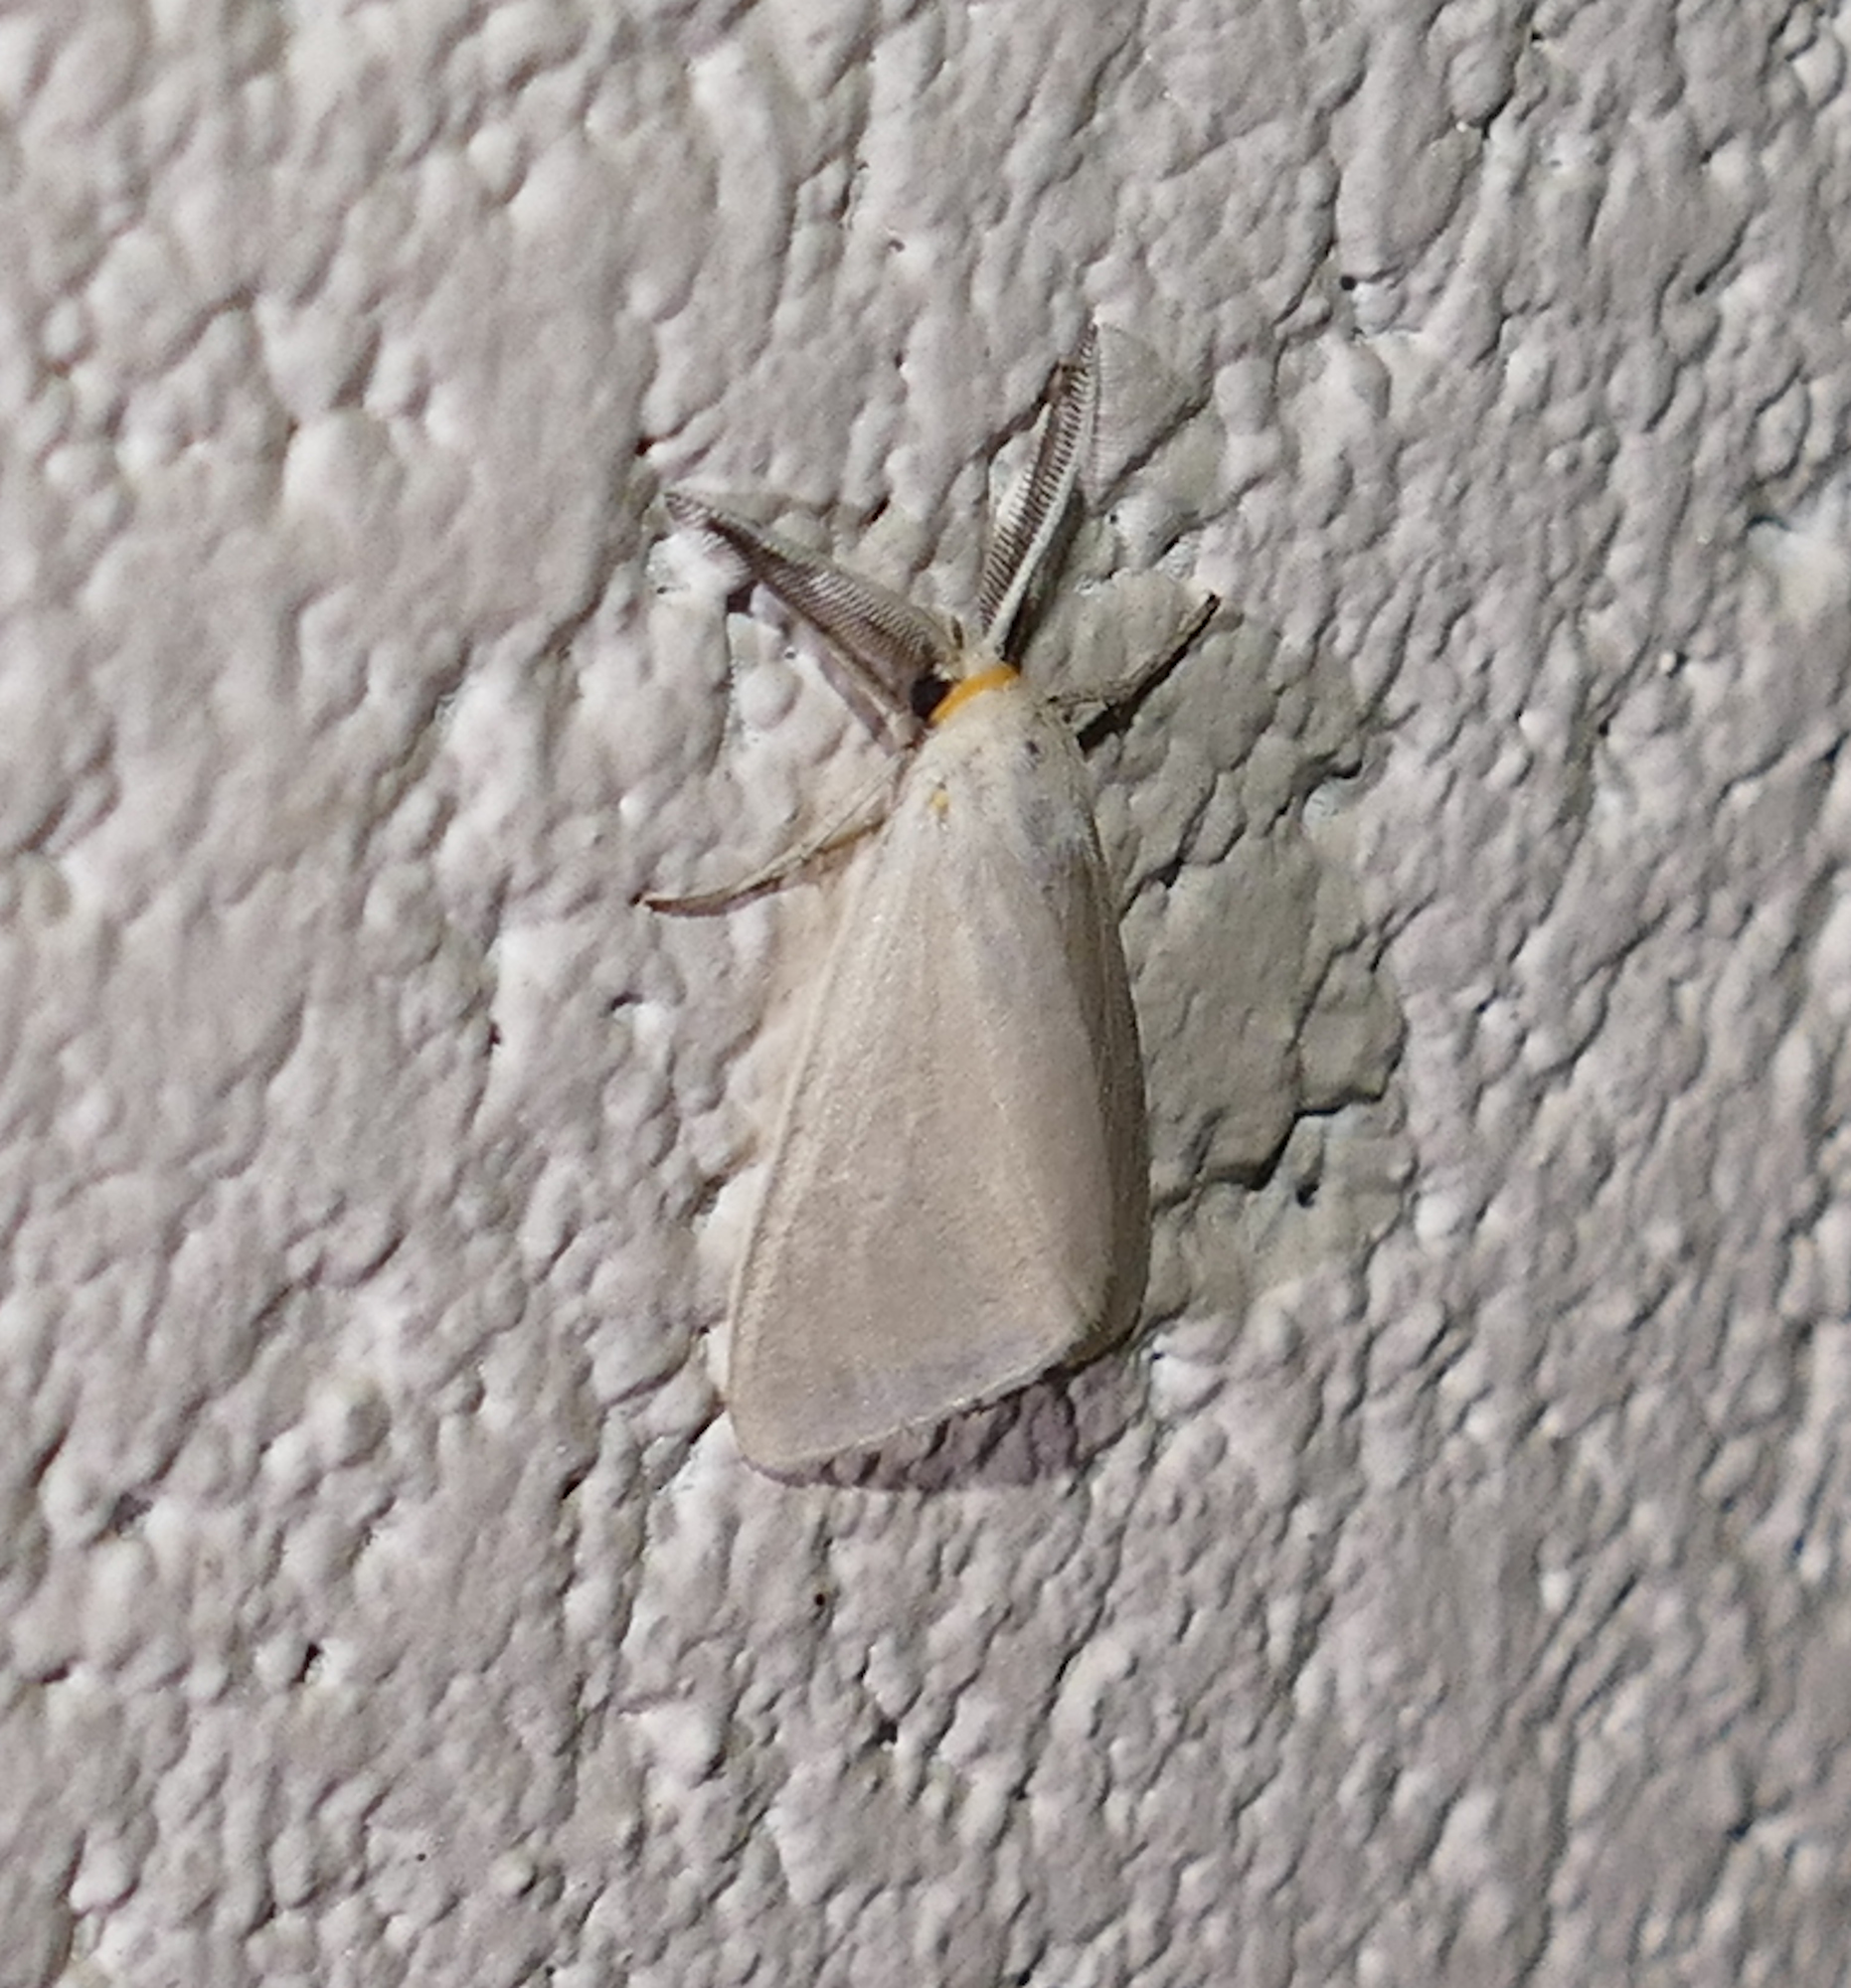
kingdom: Animalia
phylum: Arthropoda
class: Insecta
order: Lepidoptera
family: Erebidae
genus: Neoplynes
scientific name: Neoplynes eudora
